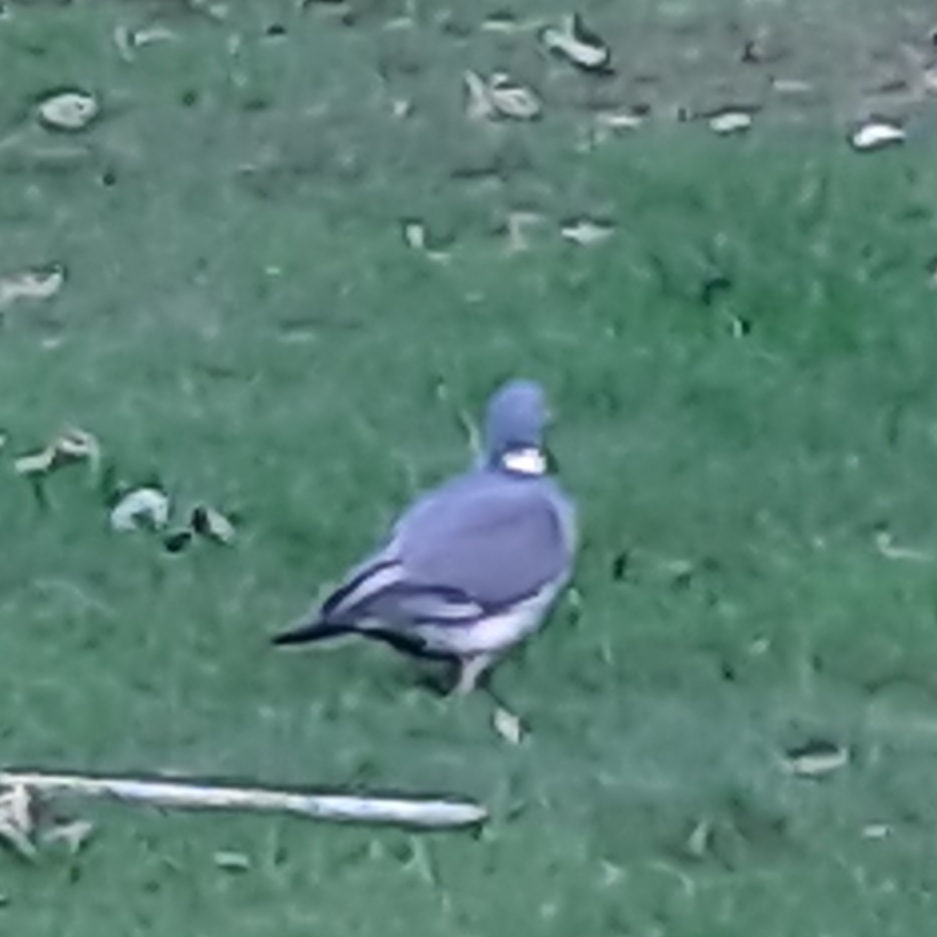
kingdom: Animalia
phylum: Chordata
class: Aves
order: Columbiformes
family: Columbidae
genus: Columba
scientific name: Columba palumbus
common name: Common wood pigeon
